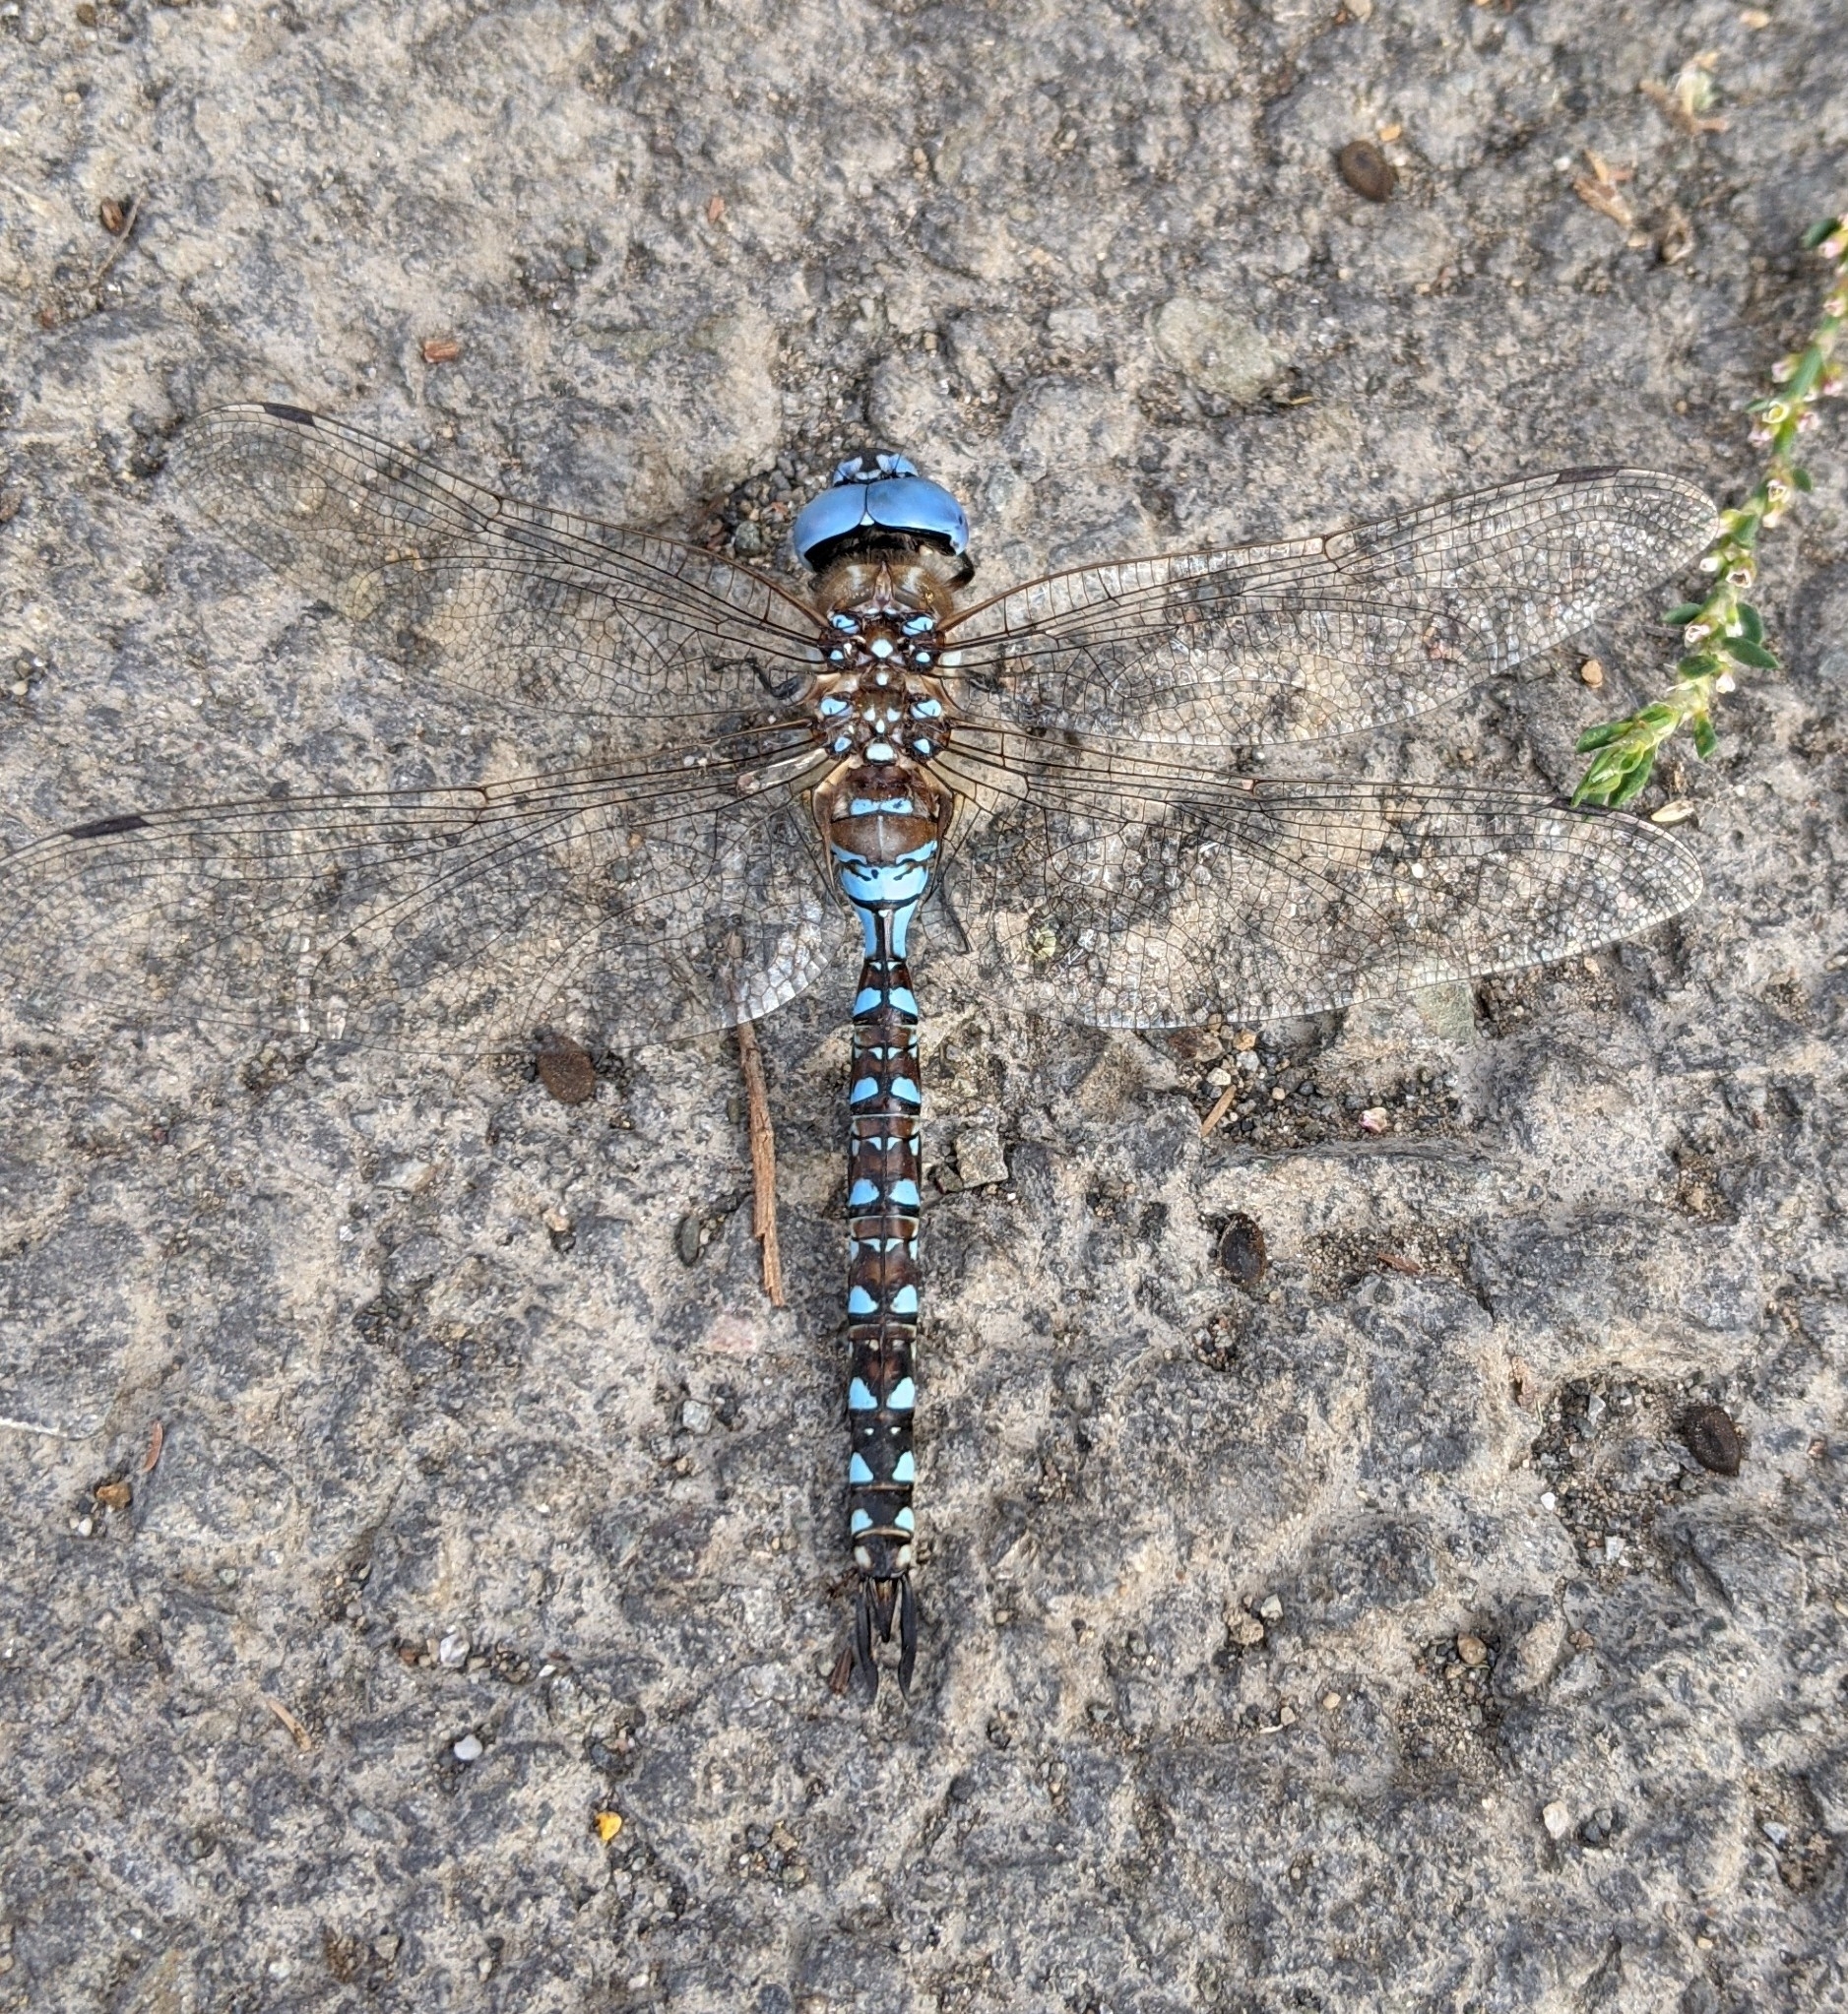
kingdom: Animalia
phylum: Arthropoda
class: Insecta
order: Odonata
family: Aeshnidae
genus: Rhionaeschna
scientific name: Rhionaeschna multicolor
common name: Blue-eyed darner
